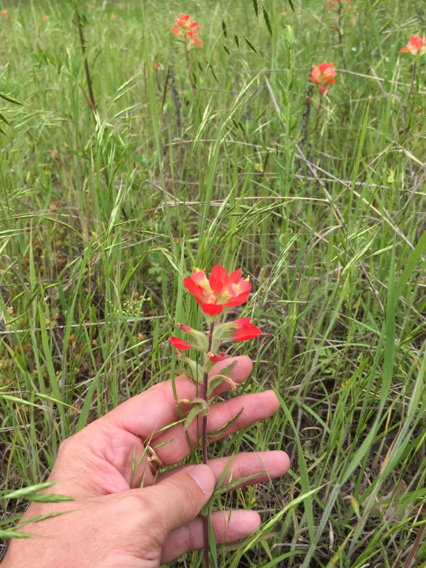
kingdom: Plantae
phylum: Tracheophyta
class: Magnoliopsida
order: Lamiales
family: Orobanchaceae
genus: Castilleja
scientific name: Castilleja indivisa
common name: Texas paintbrush
